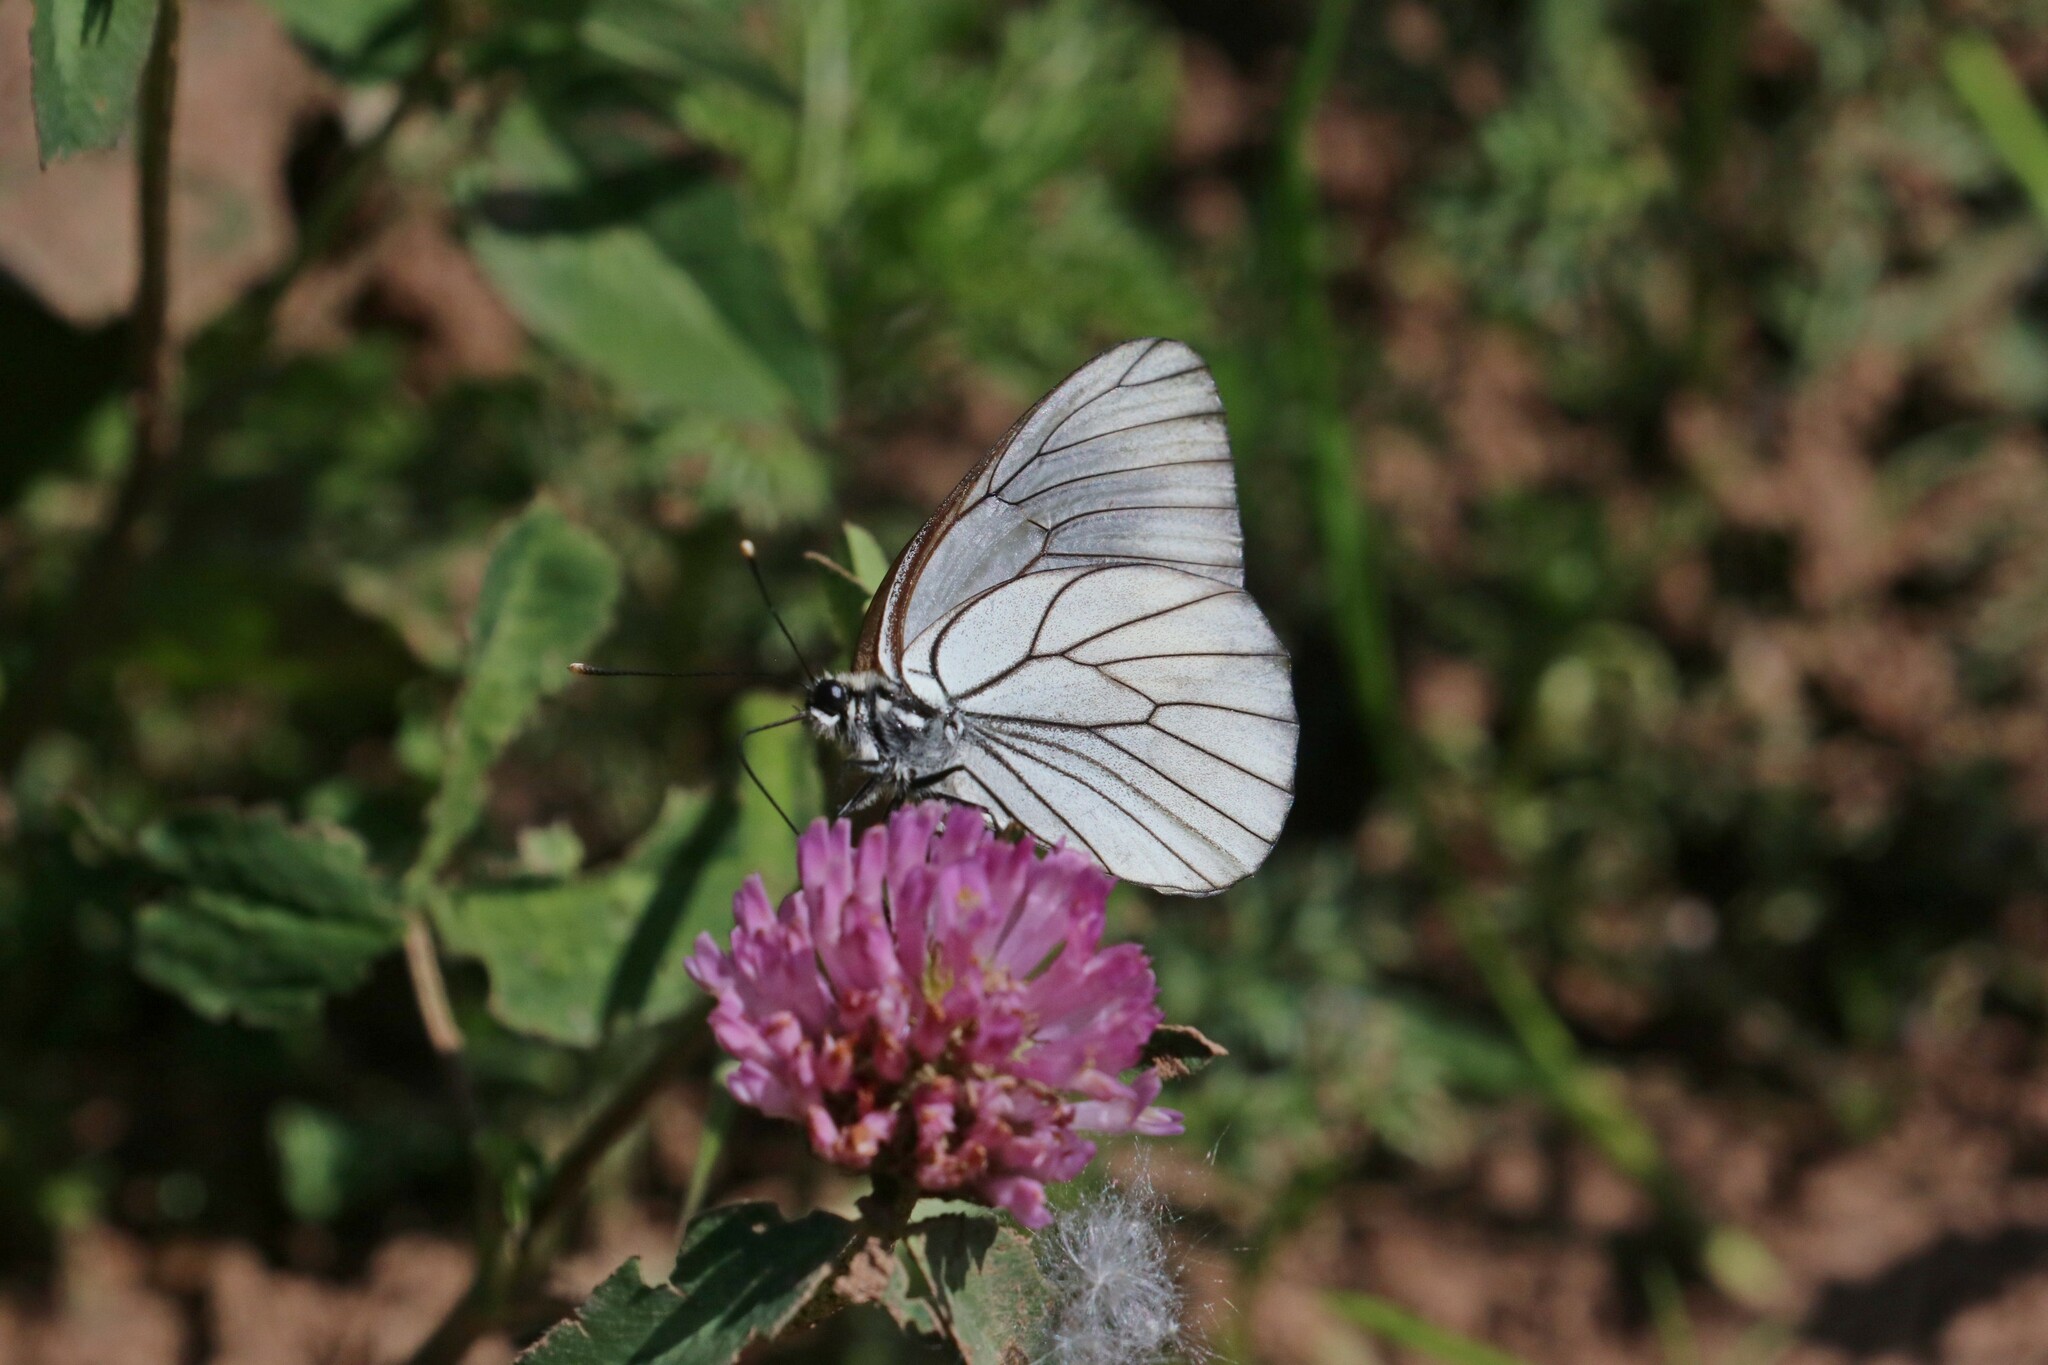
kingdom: Animalia
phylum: Arthropoda
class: Insecta
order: Lepidoptera
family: Pieridae
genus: Aporia
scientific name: Aporia crataegi
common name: Black-veined white
